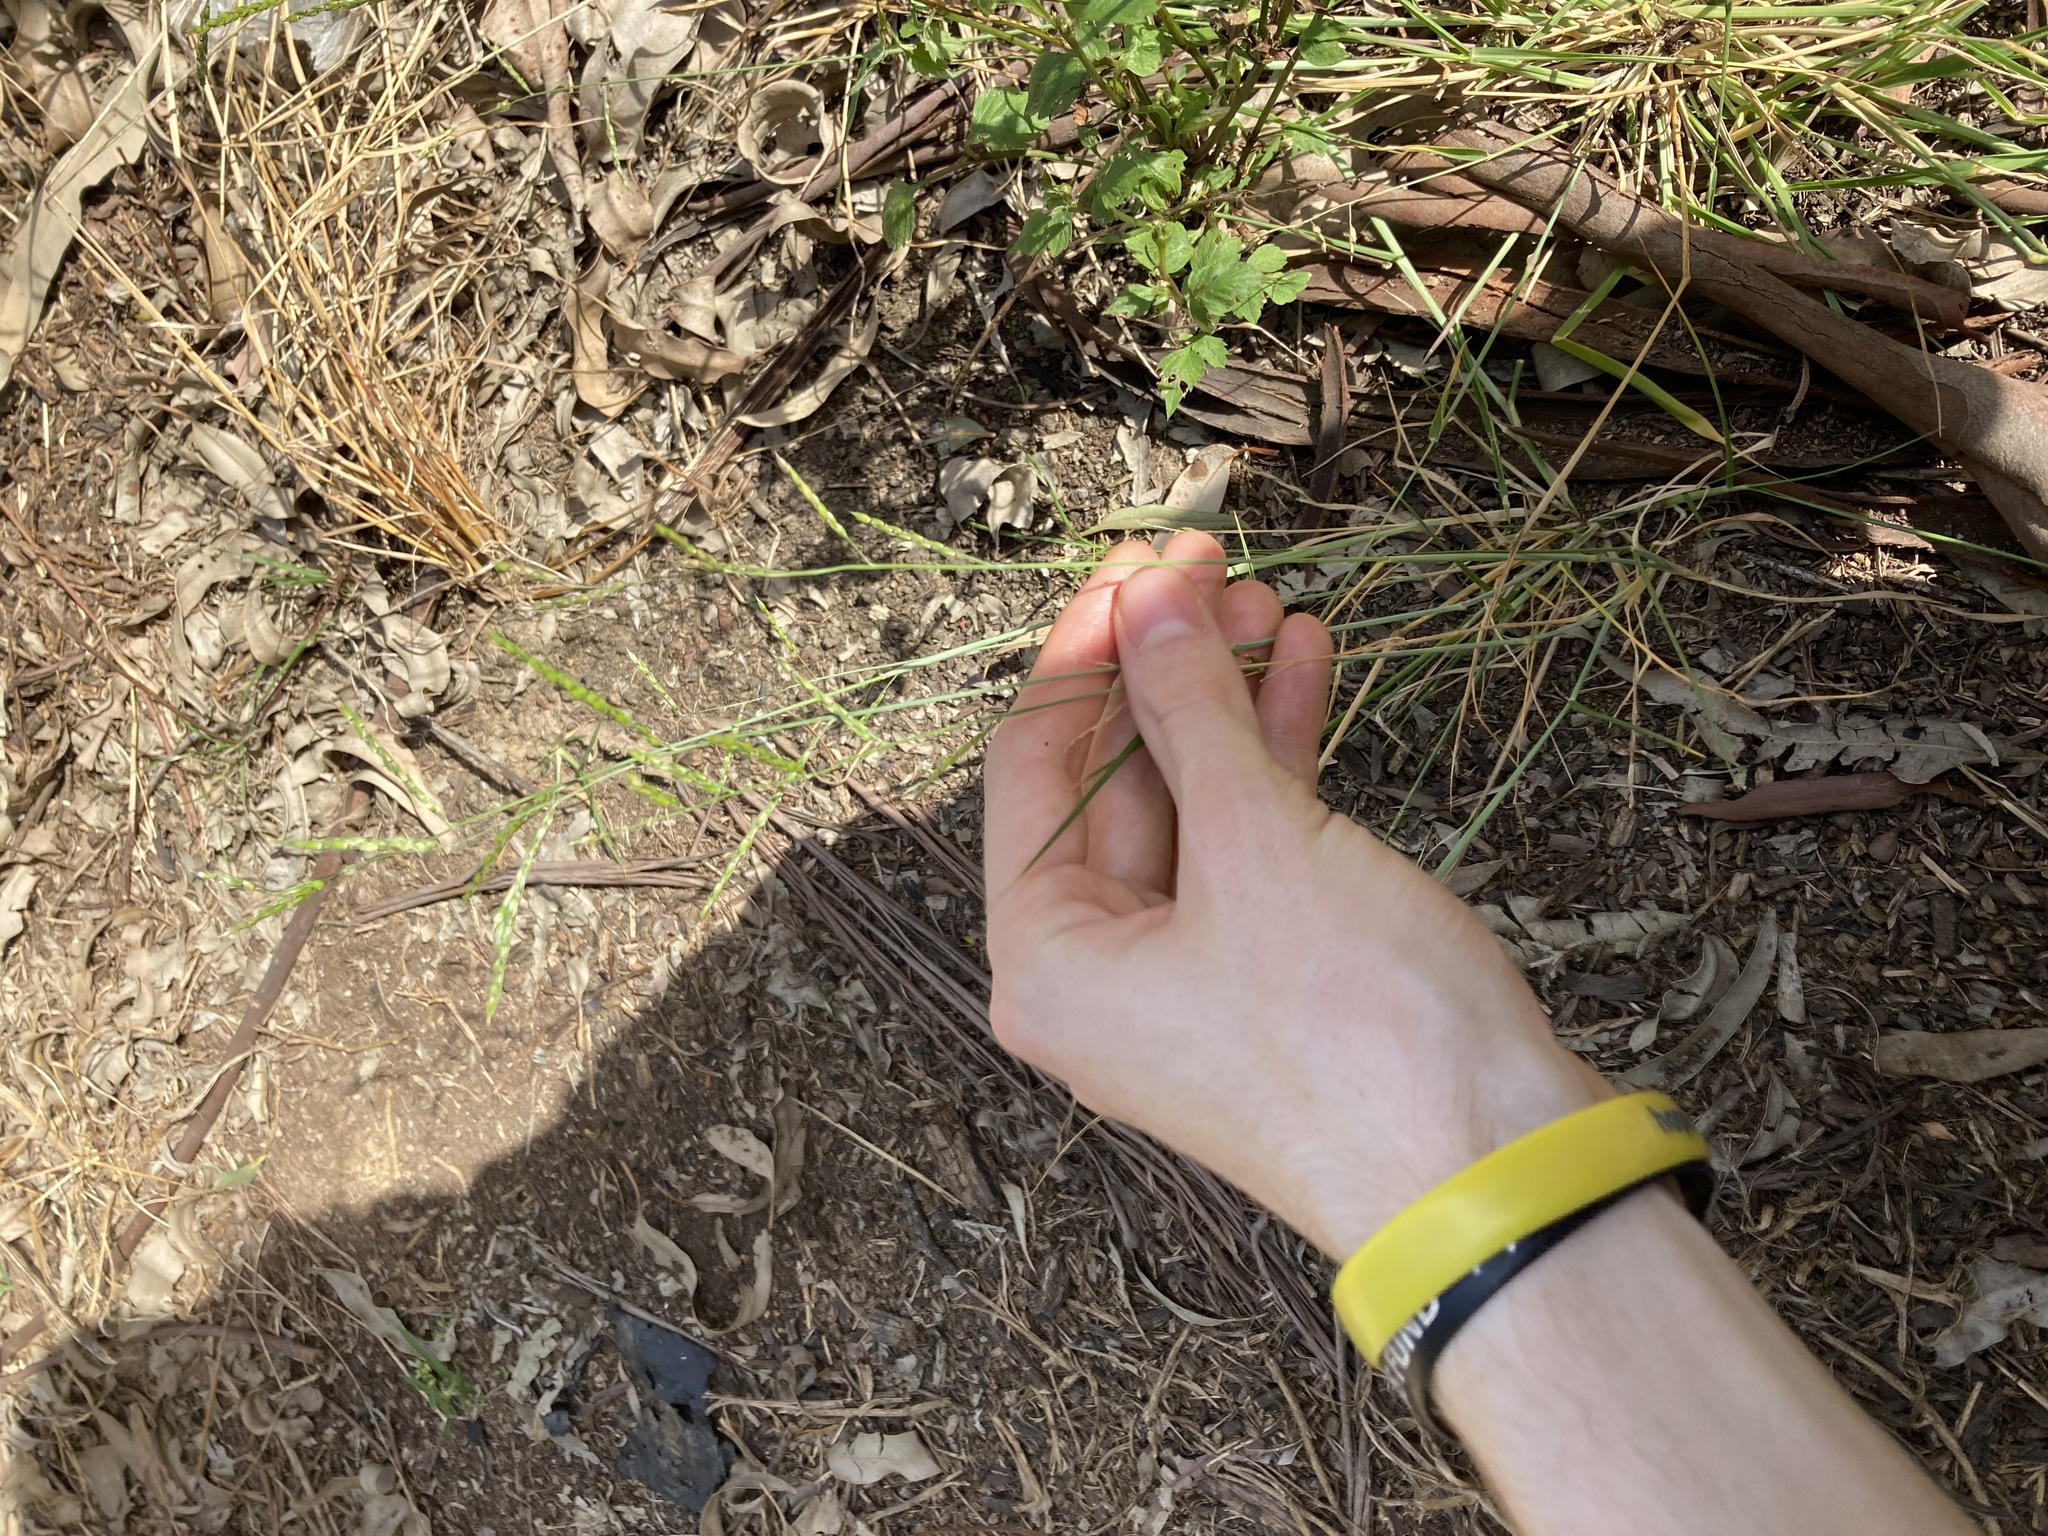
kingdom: Plantae
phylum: Tracheophyta
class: Liliopsida
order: Poales
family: Poaceae
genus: Eriochloa
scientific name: Eriochloa pseudoacrotricha
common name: Perennial cup-grass
